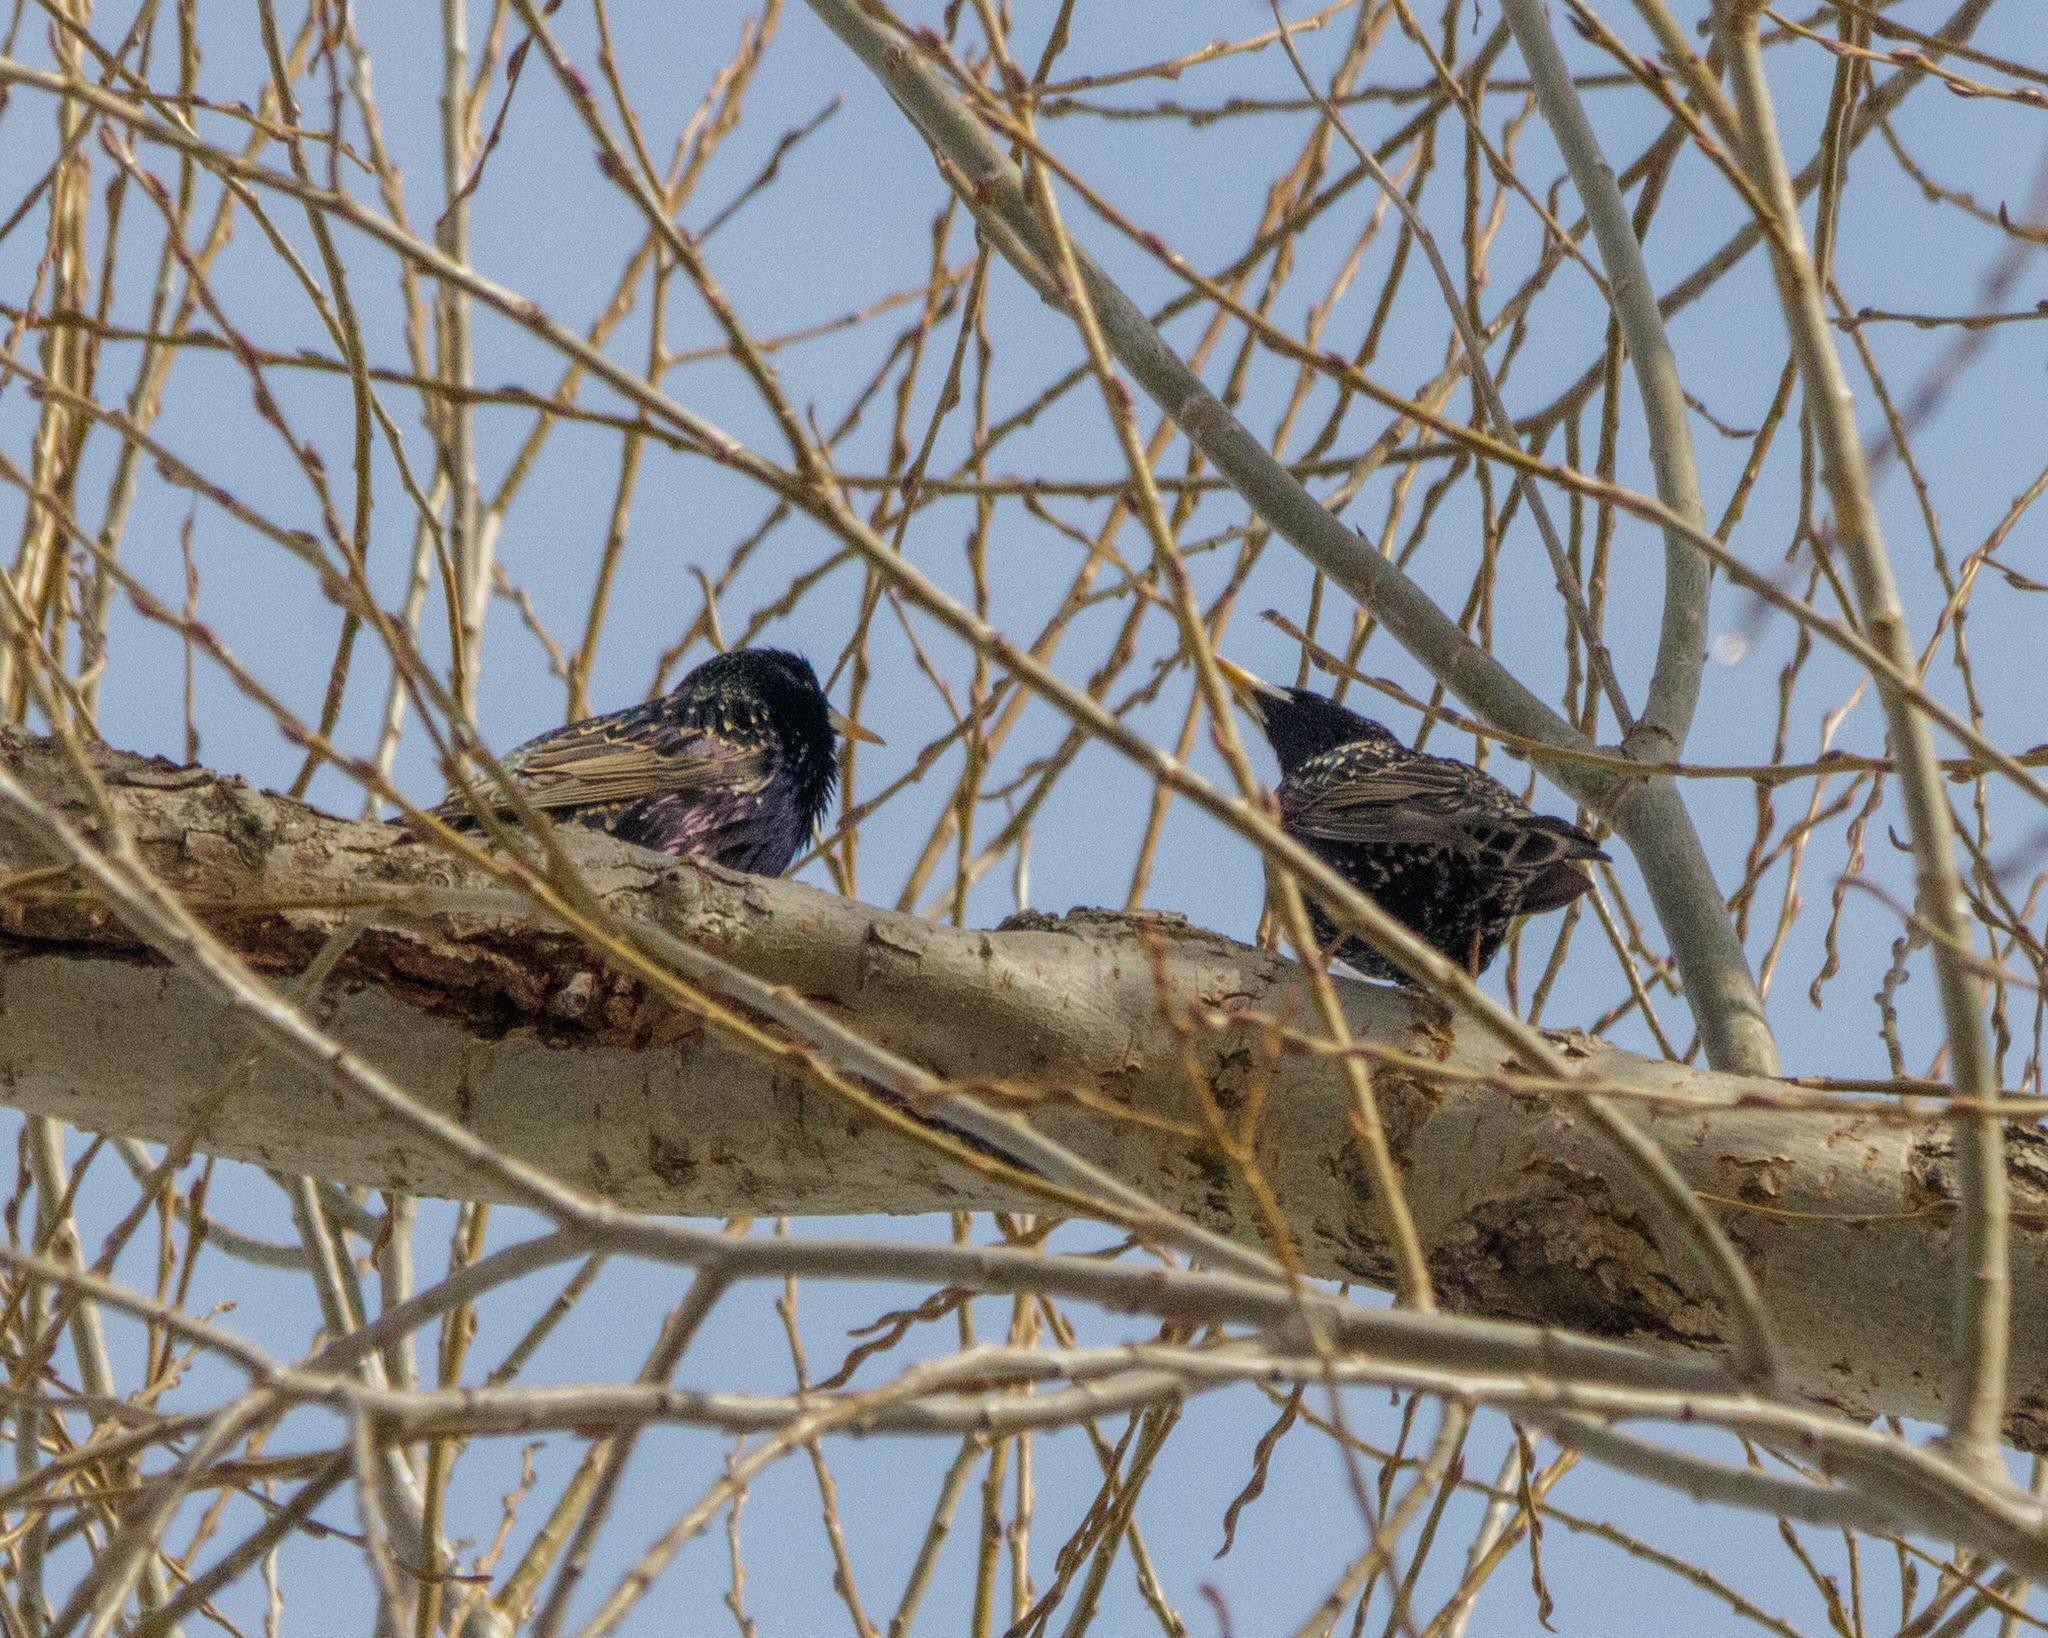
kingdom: Animalia
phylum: Chordata
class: Aves
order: Passeriformes
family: Sturnidae
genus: Sturnus
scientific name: Sturnus vulgaris
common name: Common starling
